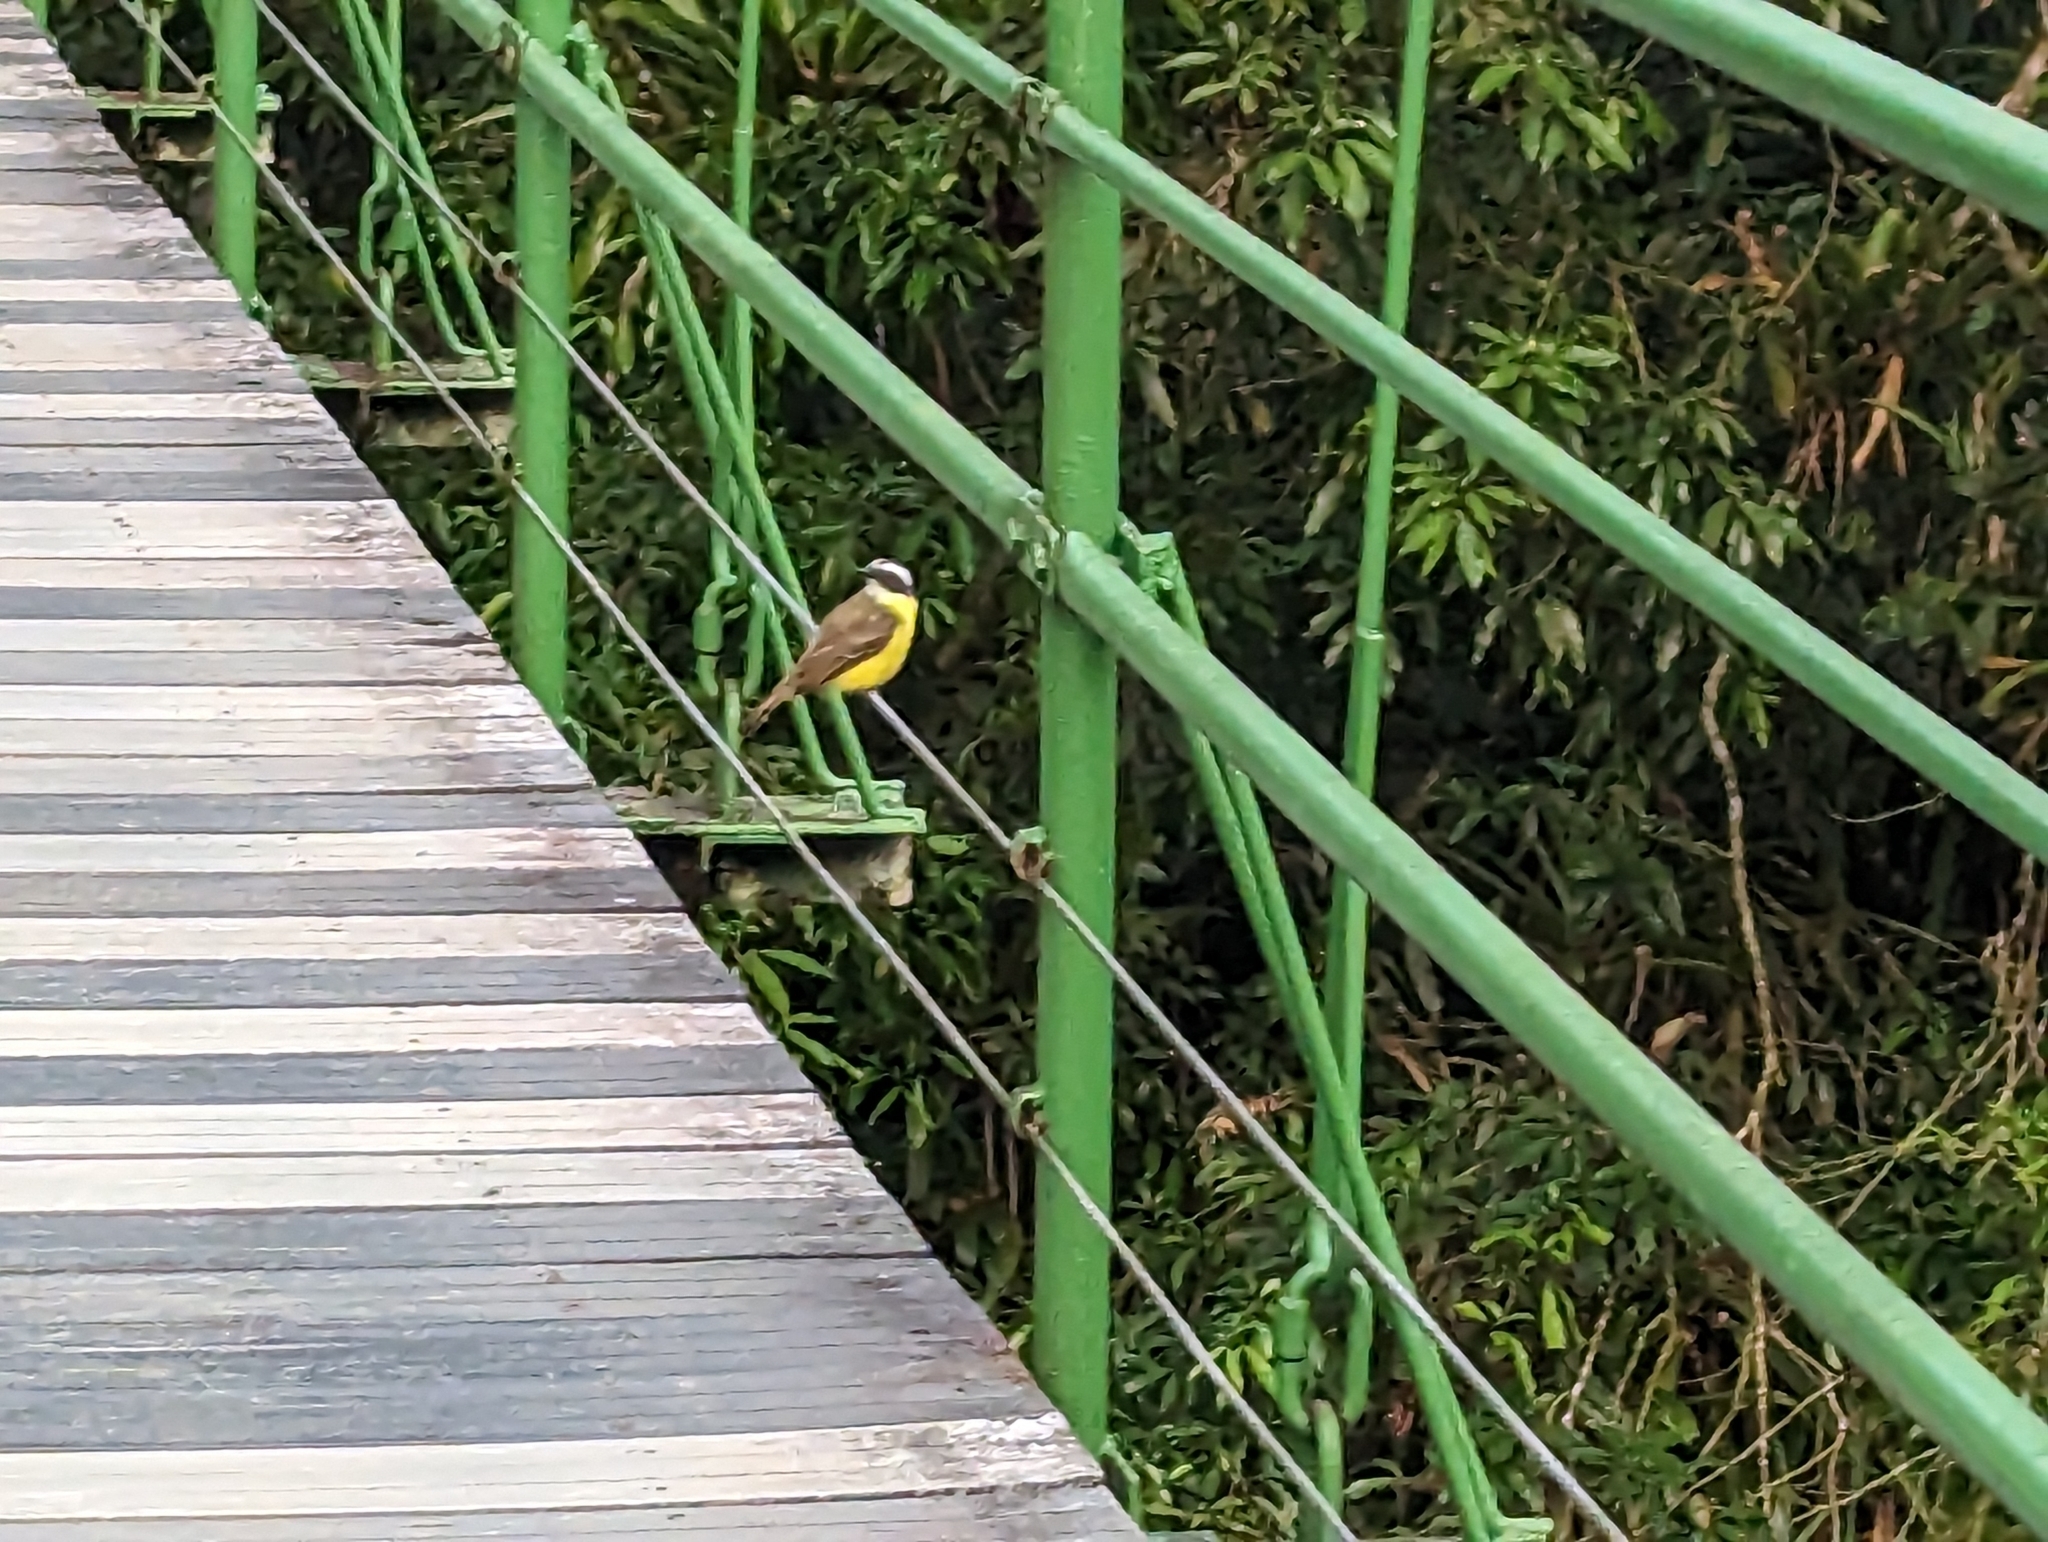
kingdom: Animalia
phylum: Chordata
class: Aves
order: Passeriformes
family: Tyrannidae
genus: Myiozetetes
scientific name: Myiozetetes similis
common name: Social flycatcher
